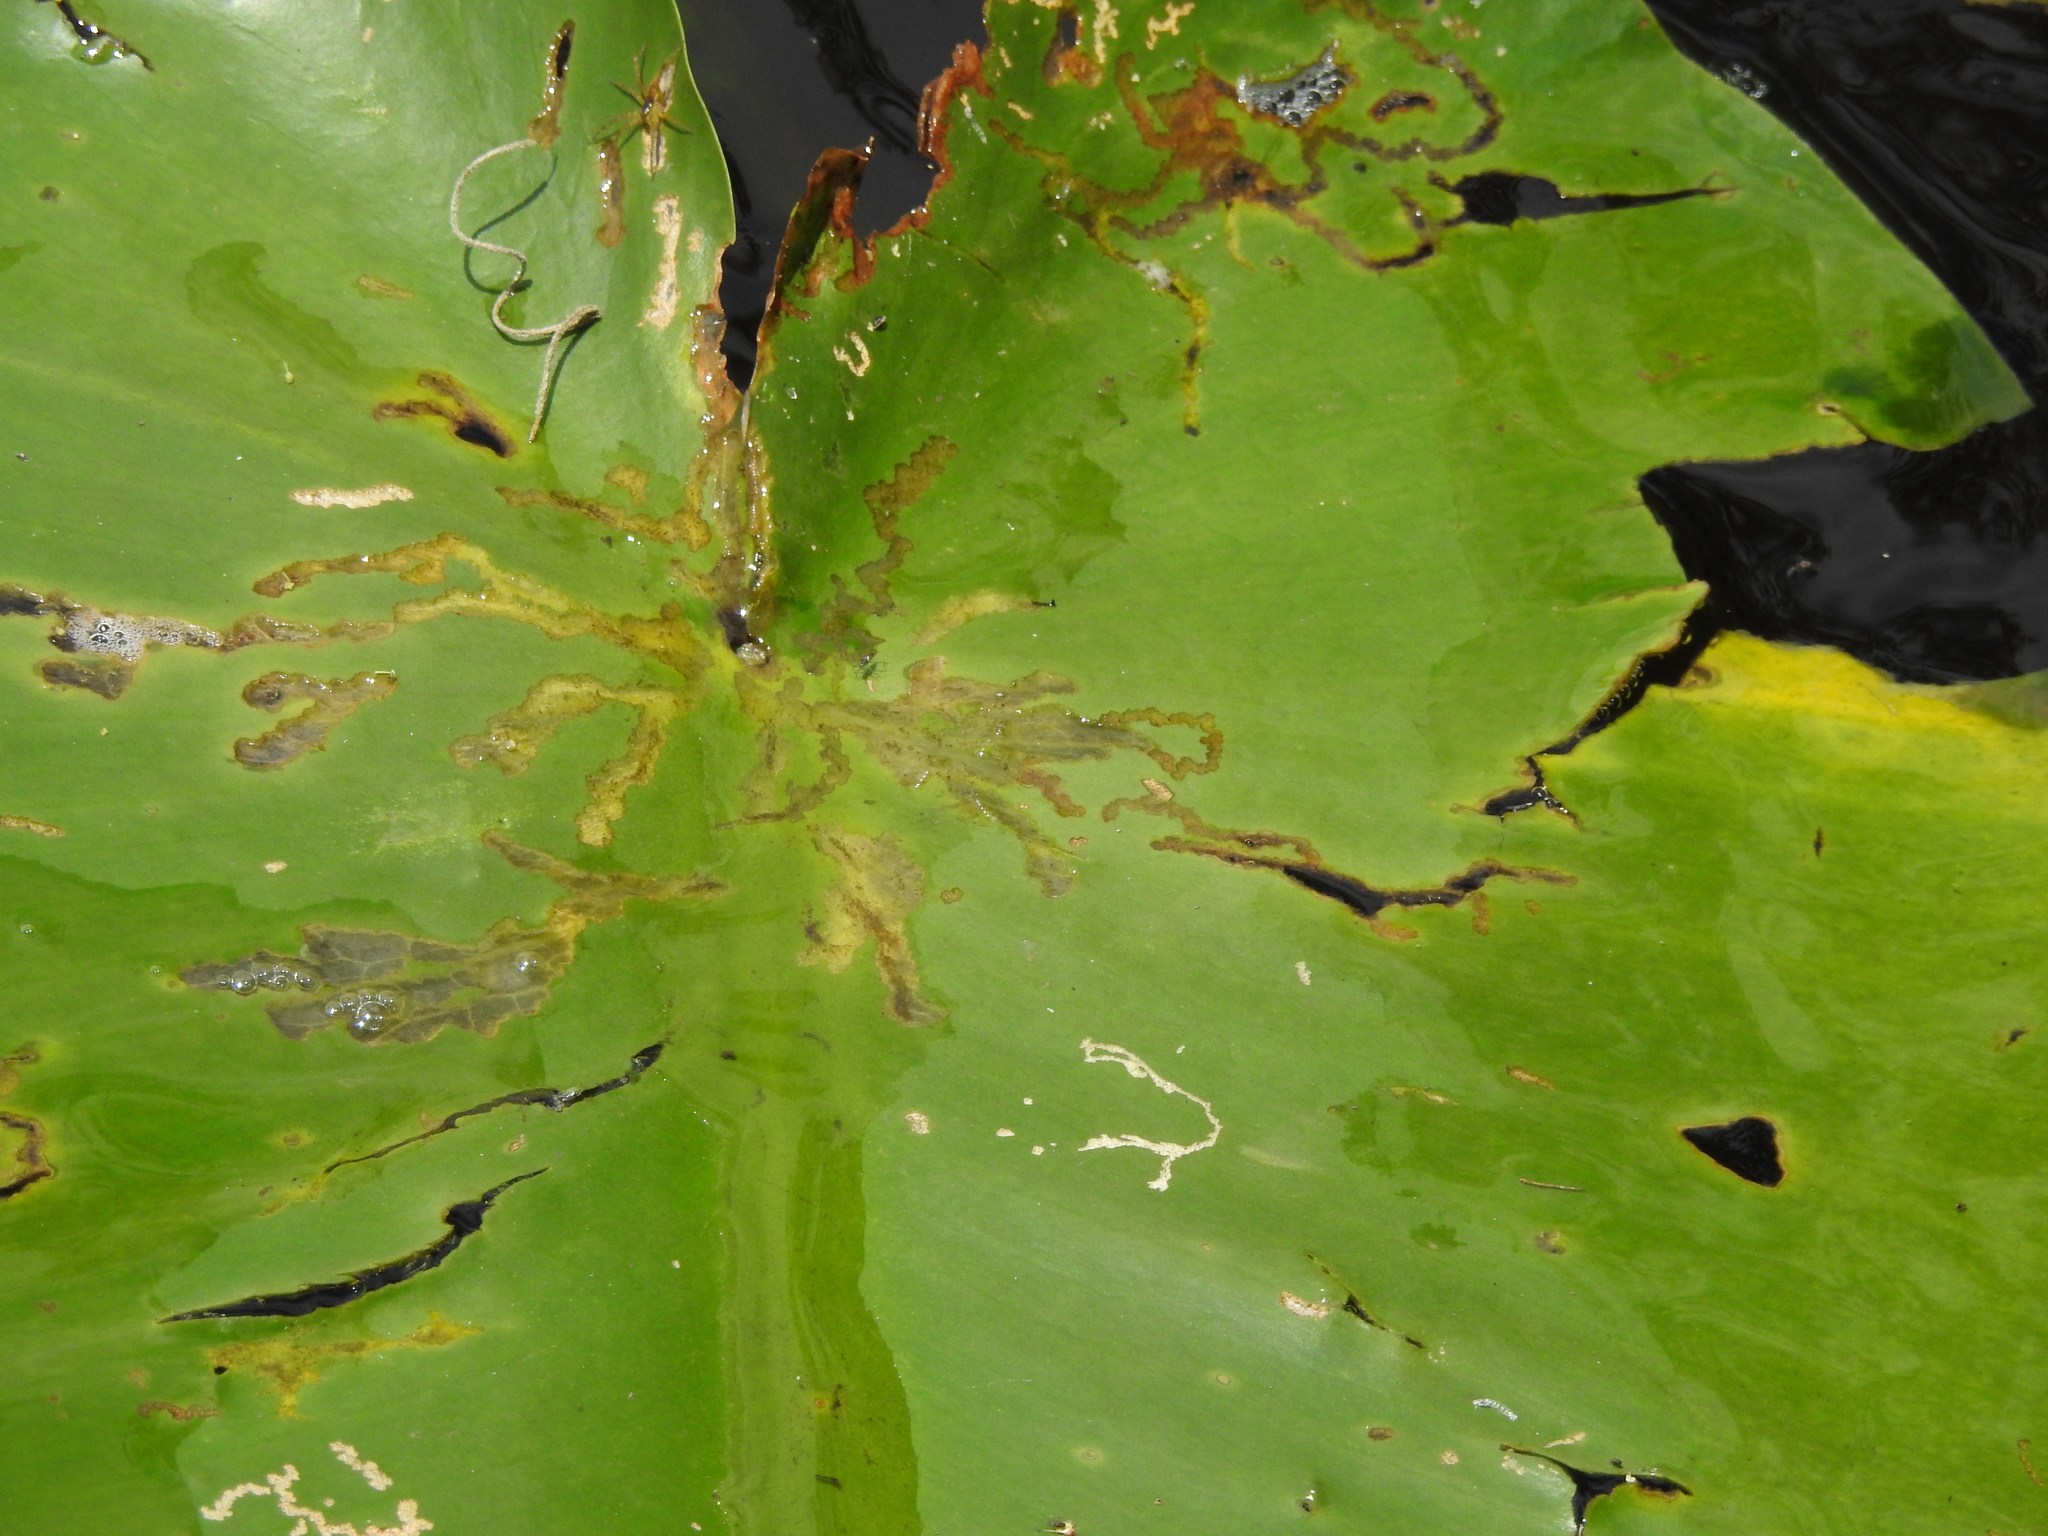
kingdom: Animalia
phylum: Arthropoda
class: Insecta
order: Lepidoptera
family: Noctuidae
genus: Bellura
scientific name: Bellura gortynoides
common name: White-tailed diver moth
